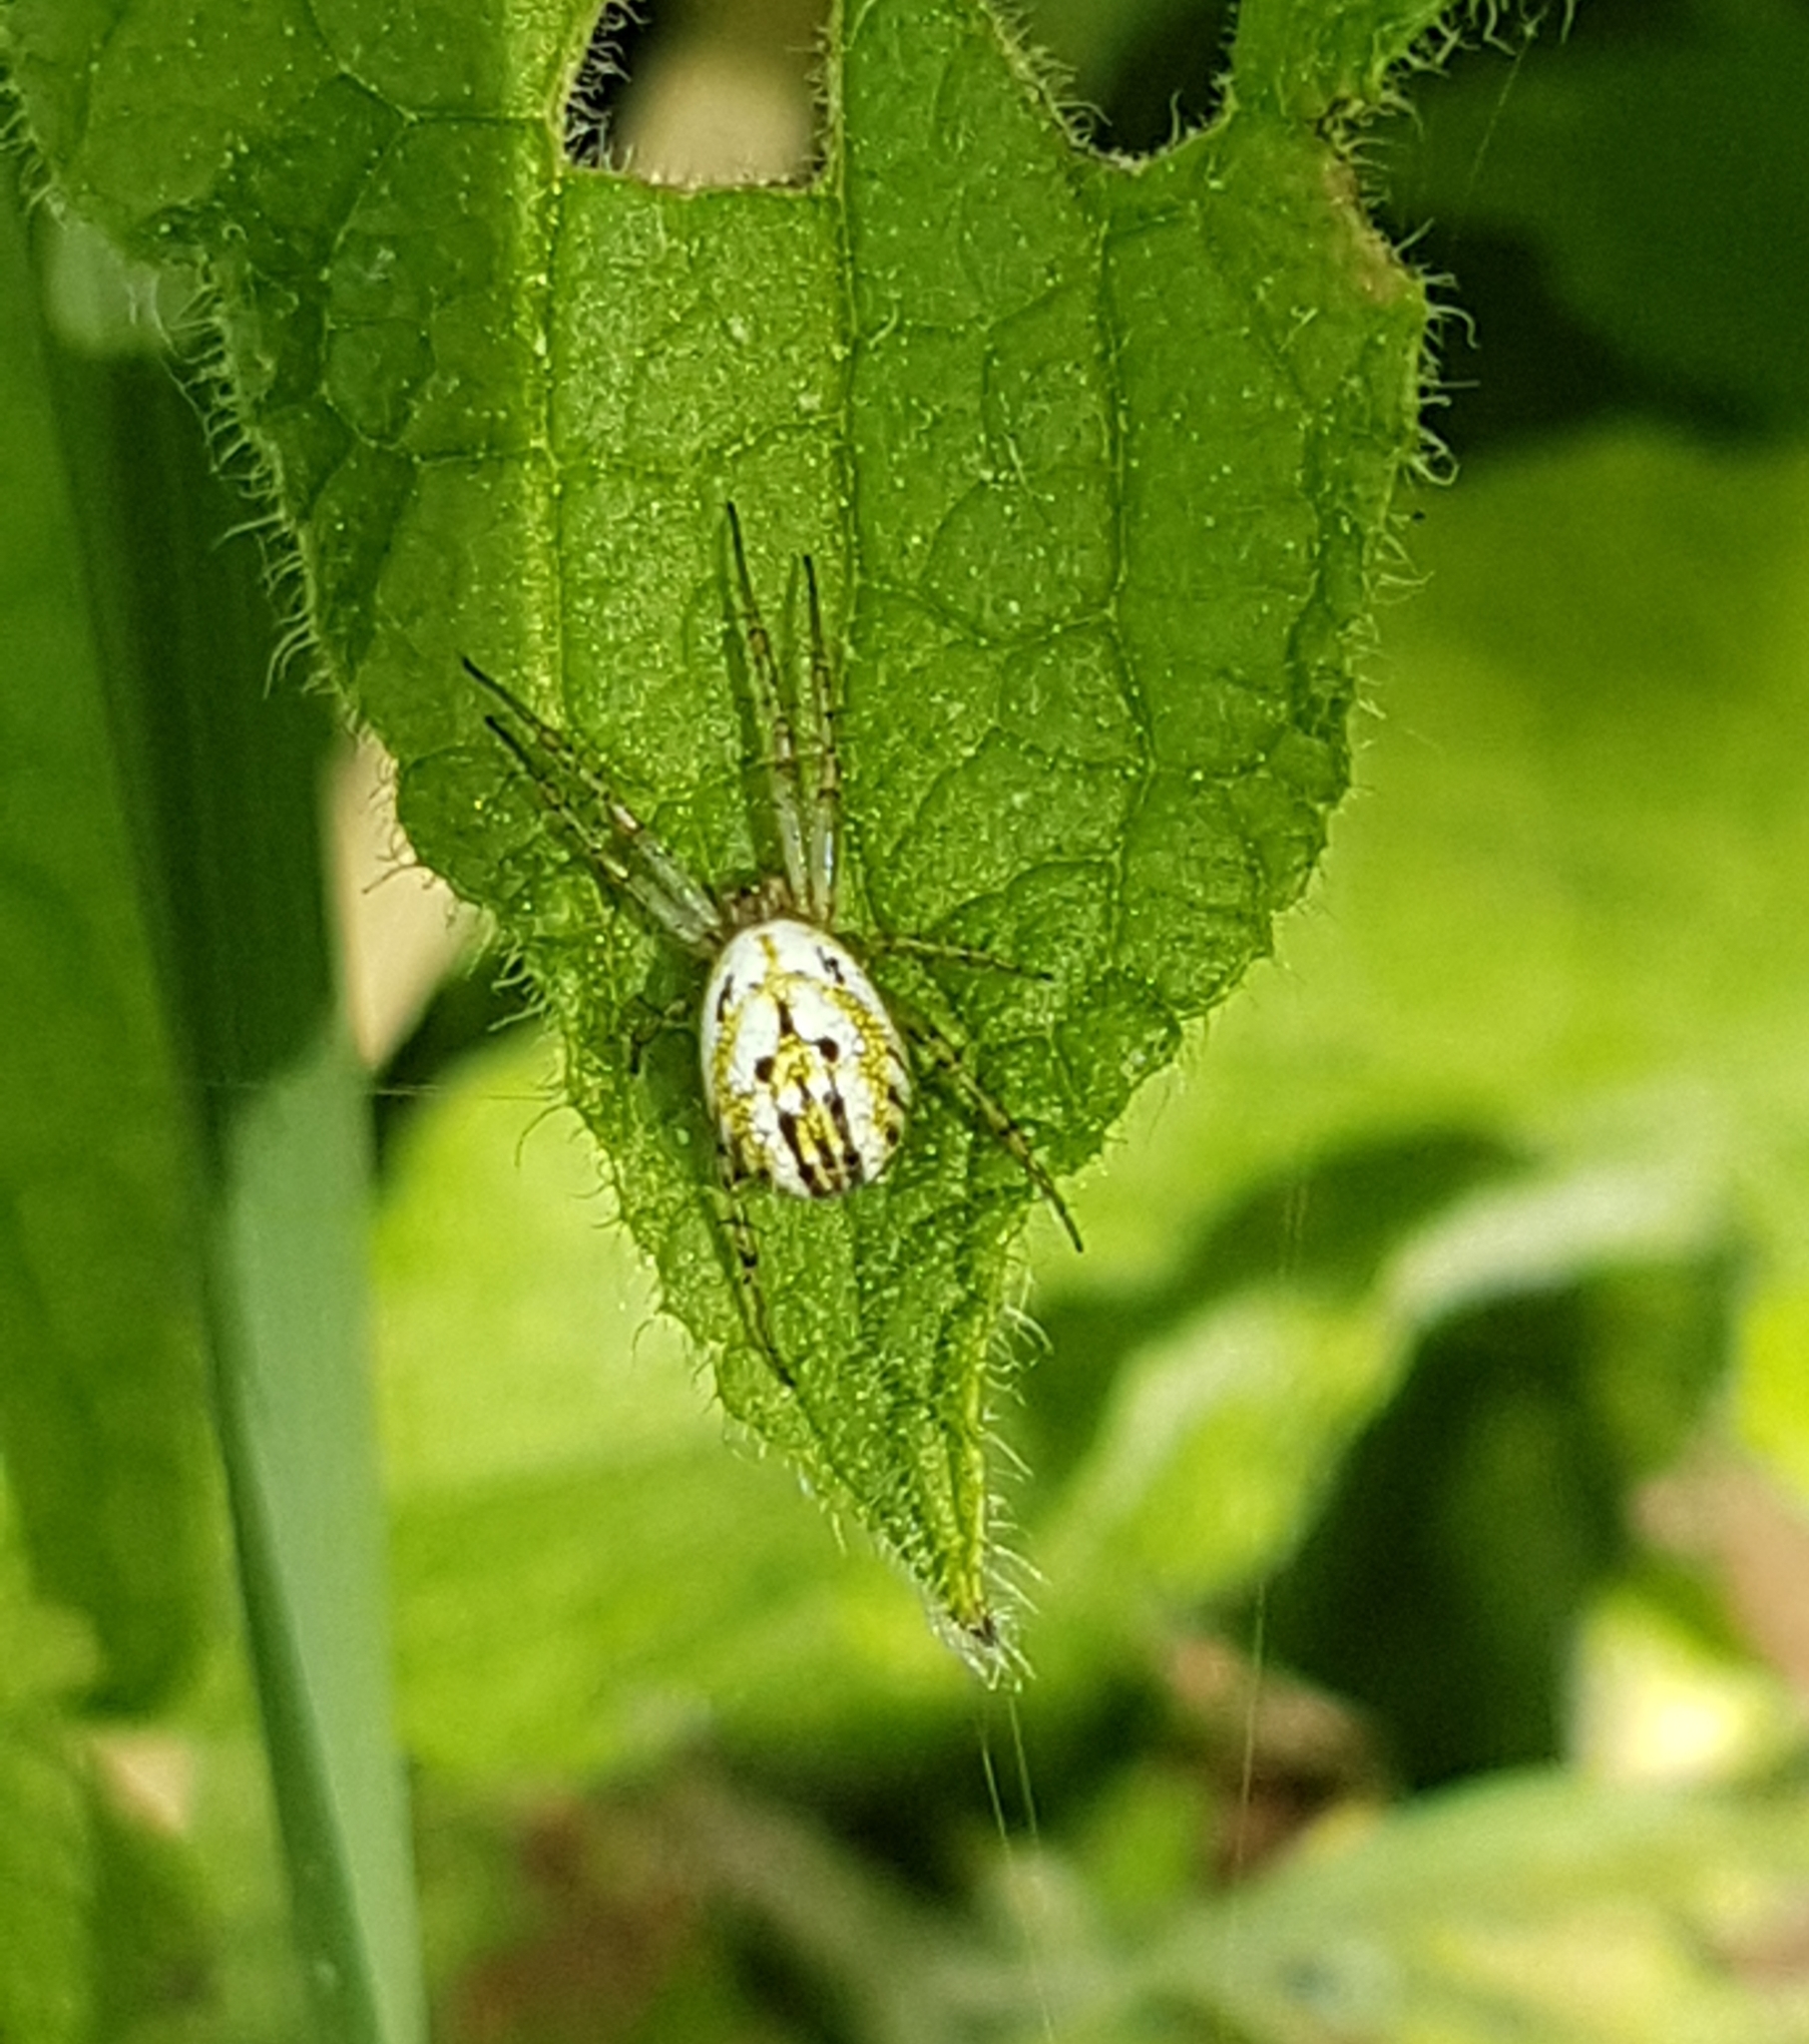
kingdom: Animalia
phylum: Arthropoda
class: Arachnida
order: Araneae
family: Araneidae
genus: Mangora
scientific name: Mangora acalypha
